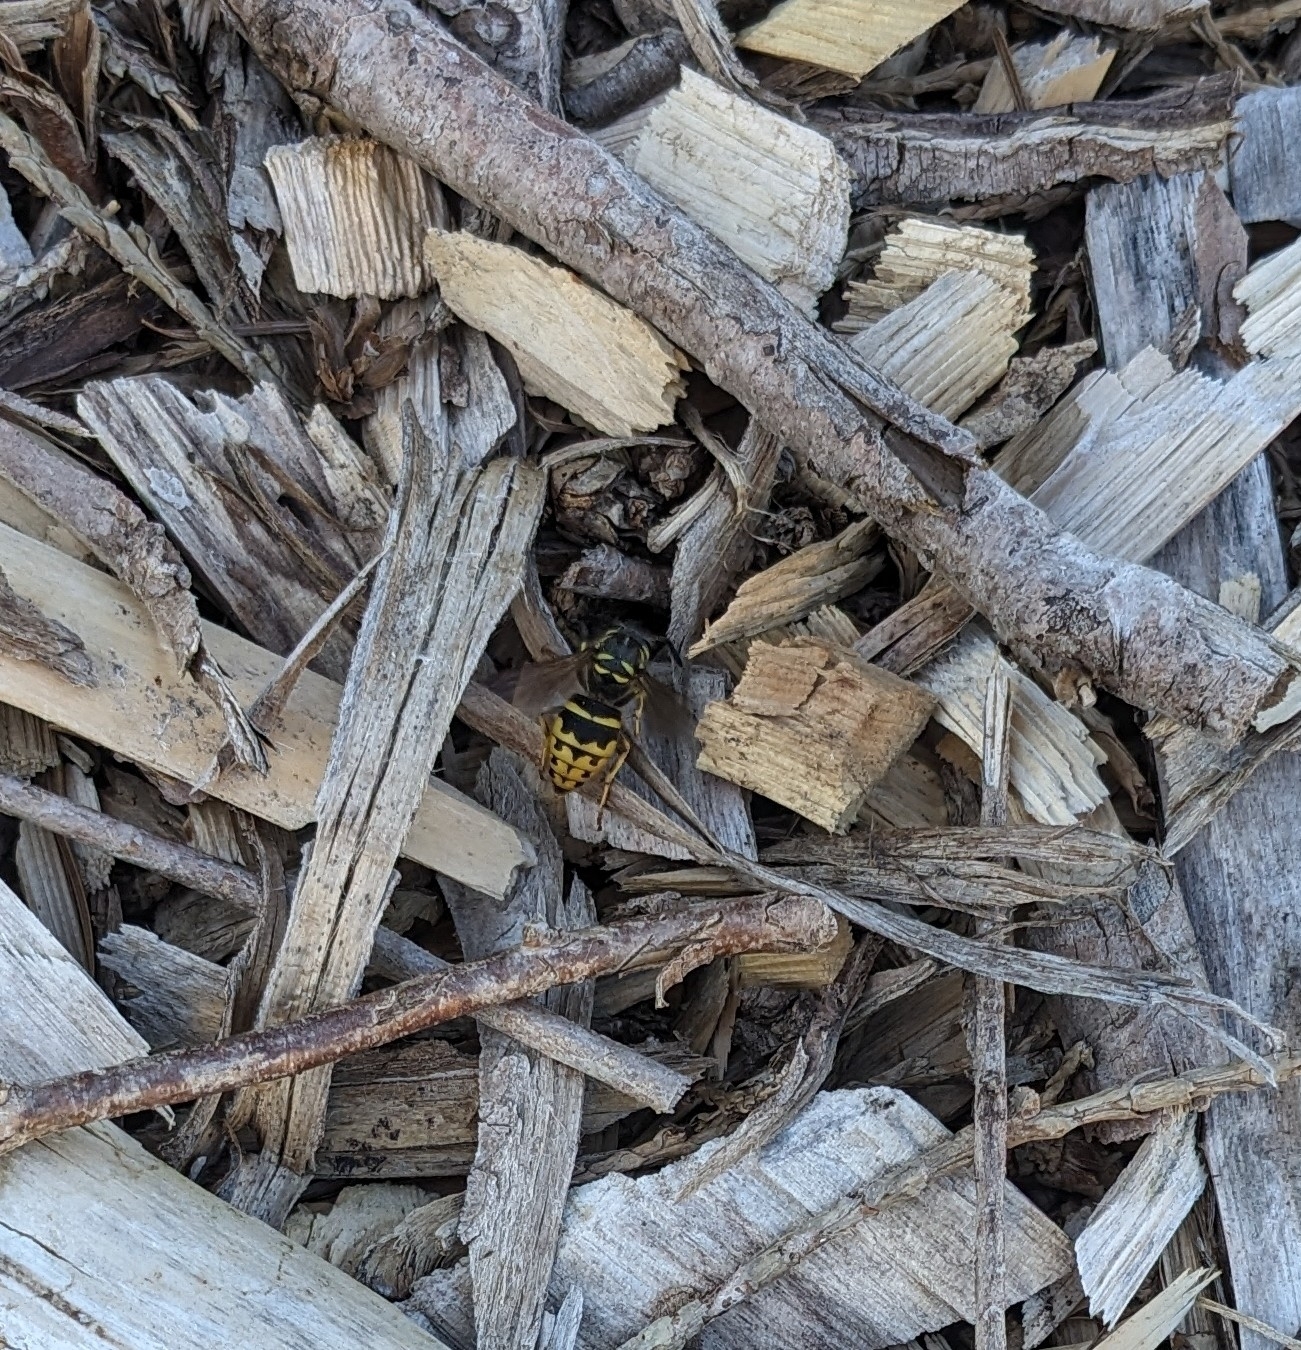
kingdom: Animalia
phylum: Arthropoda
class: Insecta
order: Hymenoptera
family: Vespidae
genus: Vespula
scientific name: Vespula alascensis
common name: Alaska yellowjacket
